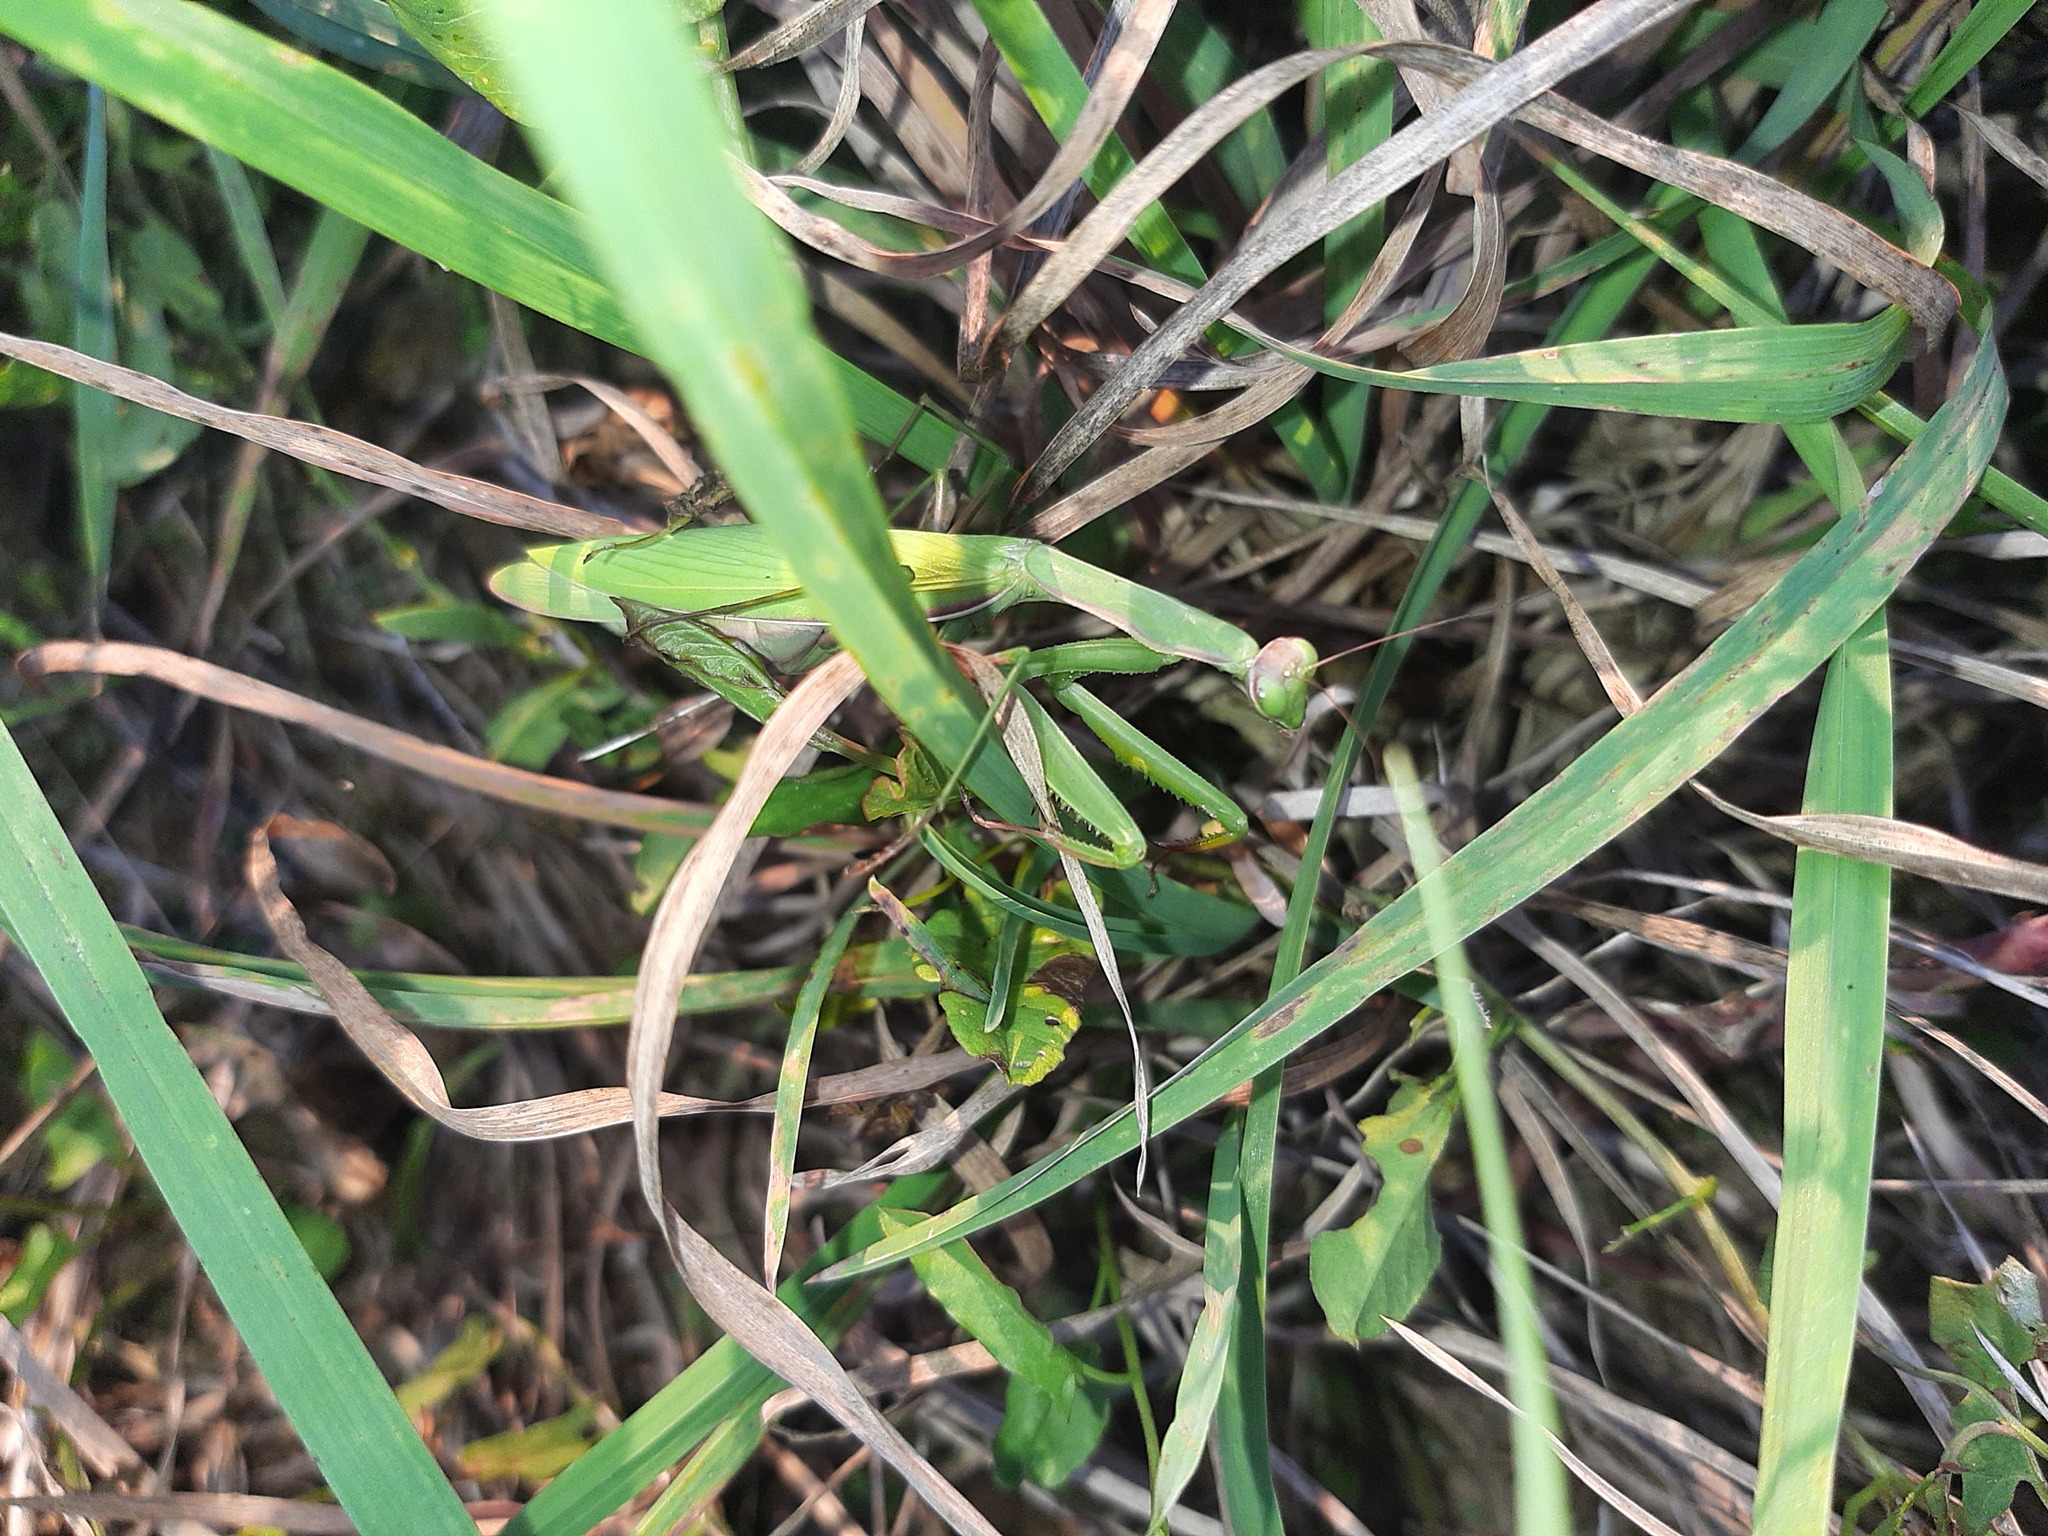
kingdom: Animalia
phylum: Arthropoda
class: Insecta
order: Mantodea
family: Mantidae
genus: Mantis
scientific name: Mantis religiosa
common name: Praying mantis
